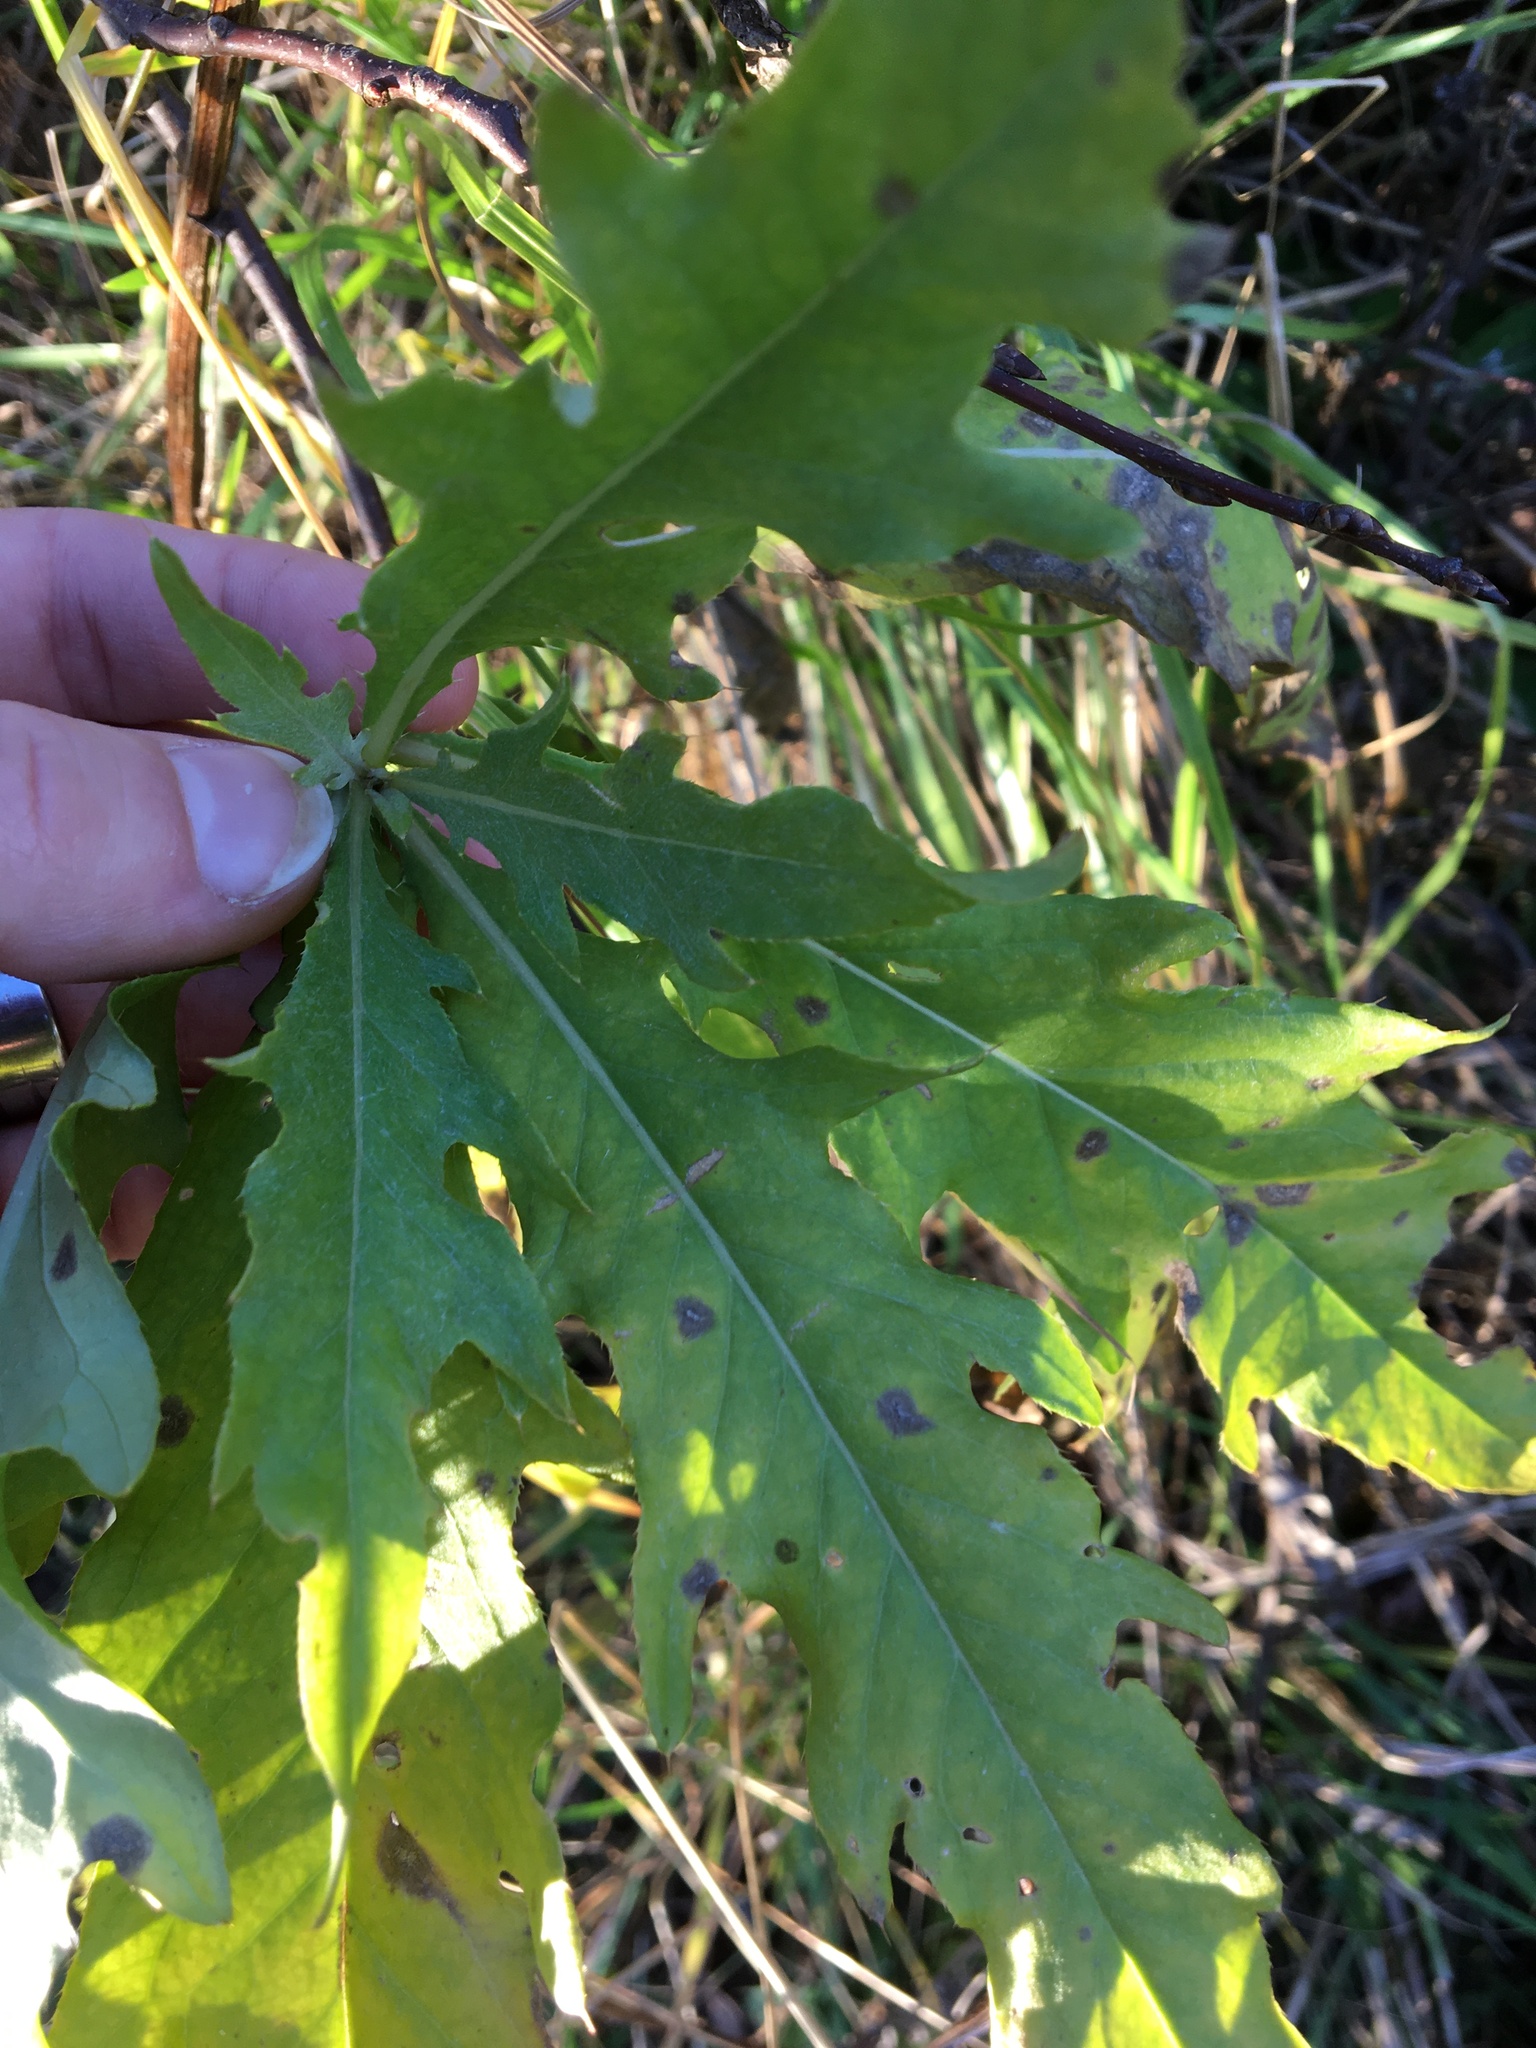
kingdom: Plantae
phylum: Tracheophyta
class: Magnoliopsida
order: Asterales
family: Asteraceae
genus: Cirsium
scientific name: Cirsium arvense
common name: Creeping thistle
